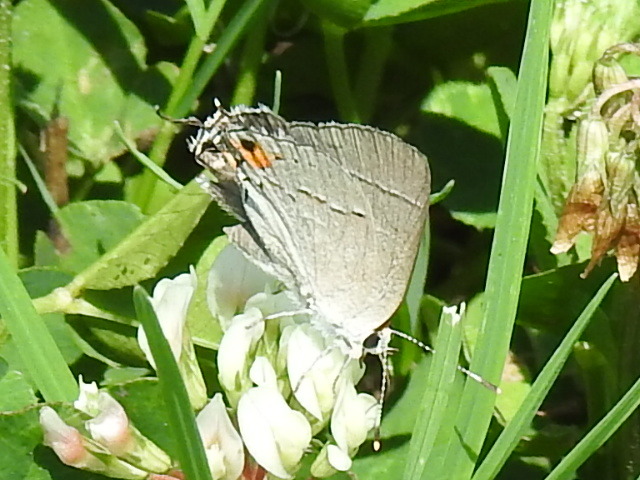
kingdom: Animalia
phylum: Arthropoda
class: Insecta
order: Lepidoptera
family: Lycaenidae
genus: Strymon
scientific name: Strymon melinus
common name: Gray hairstreak
